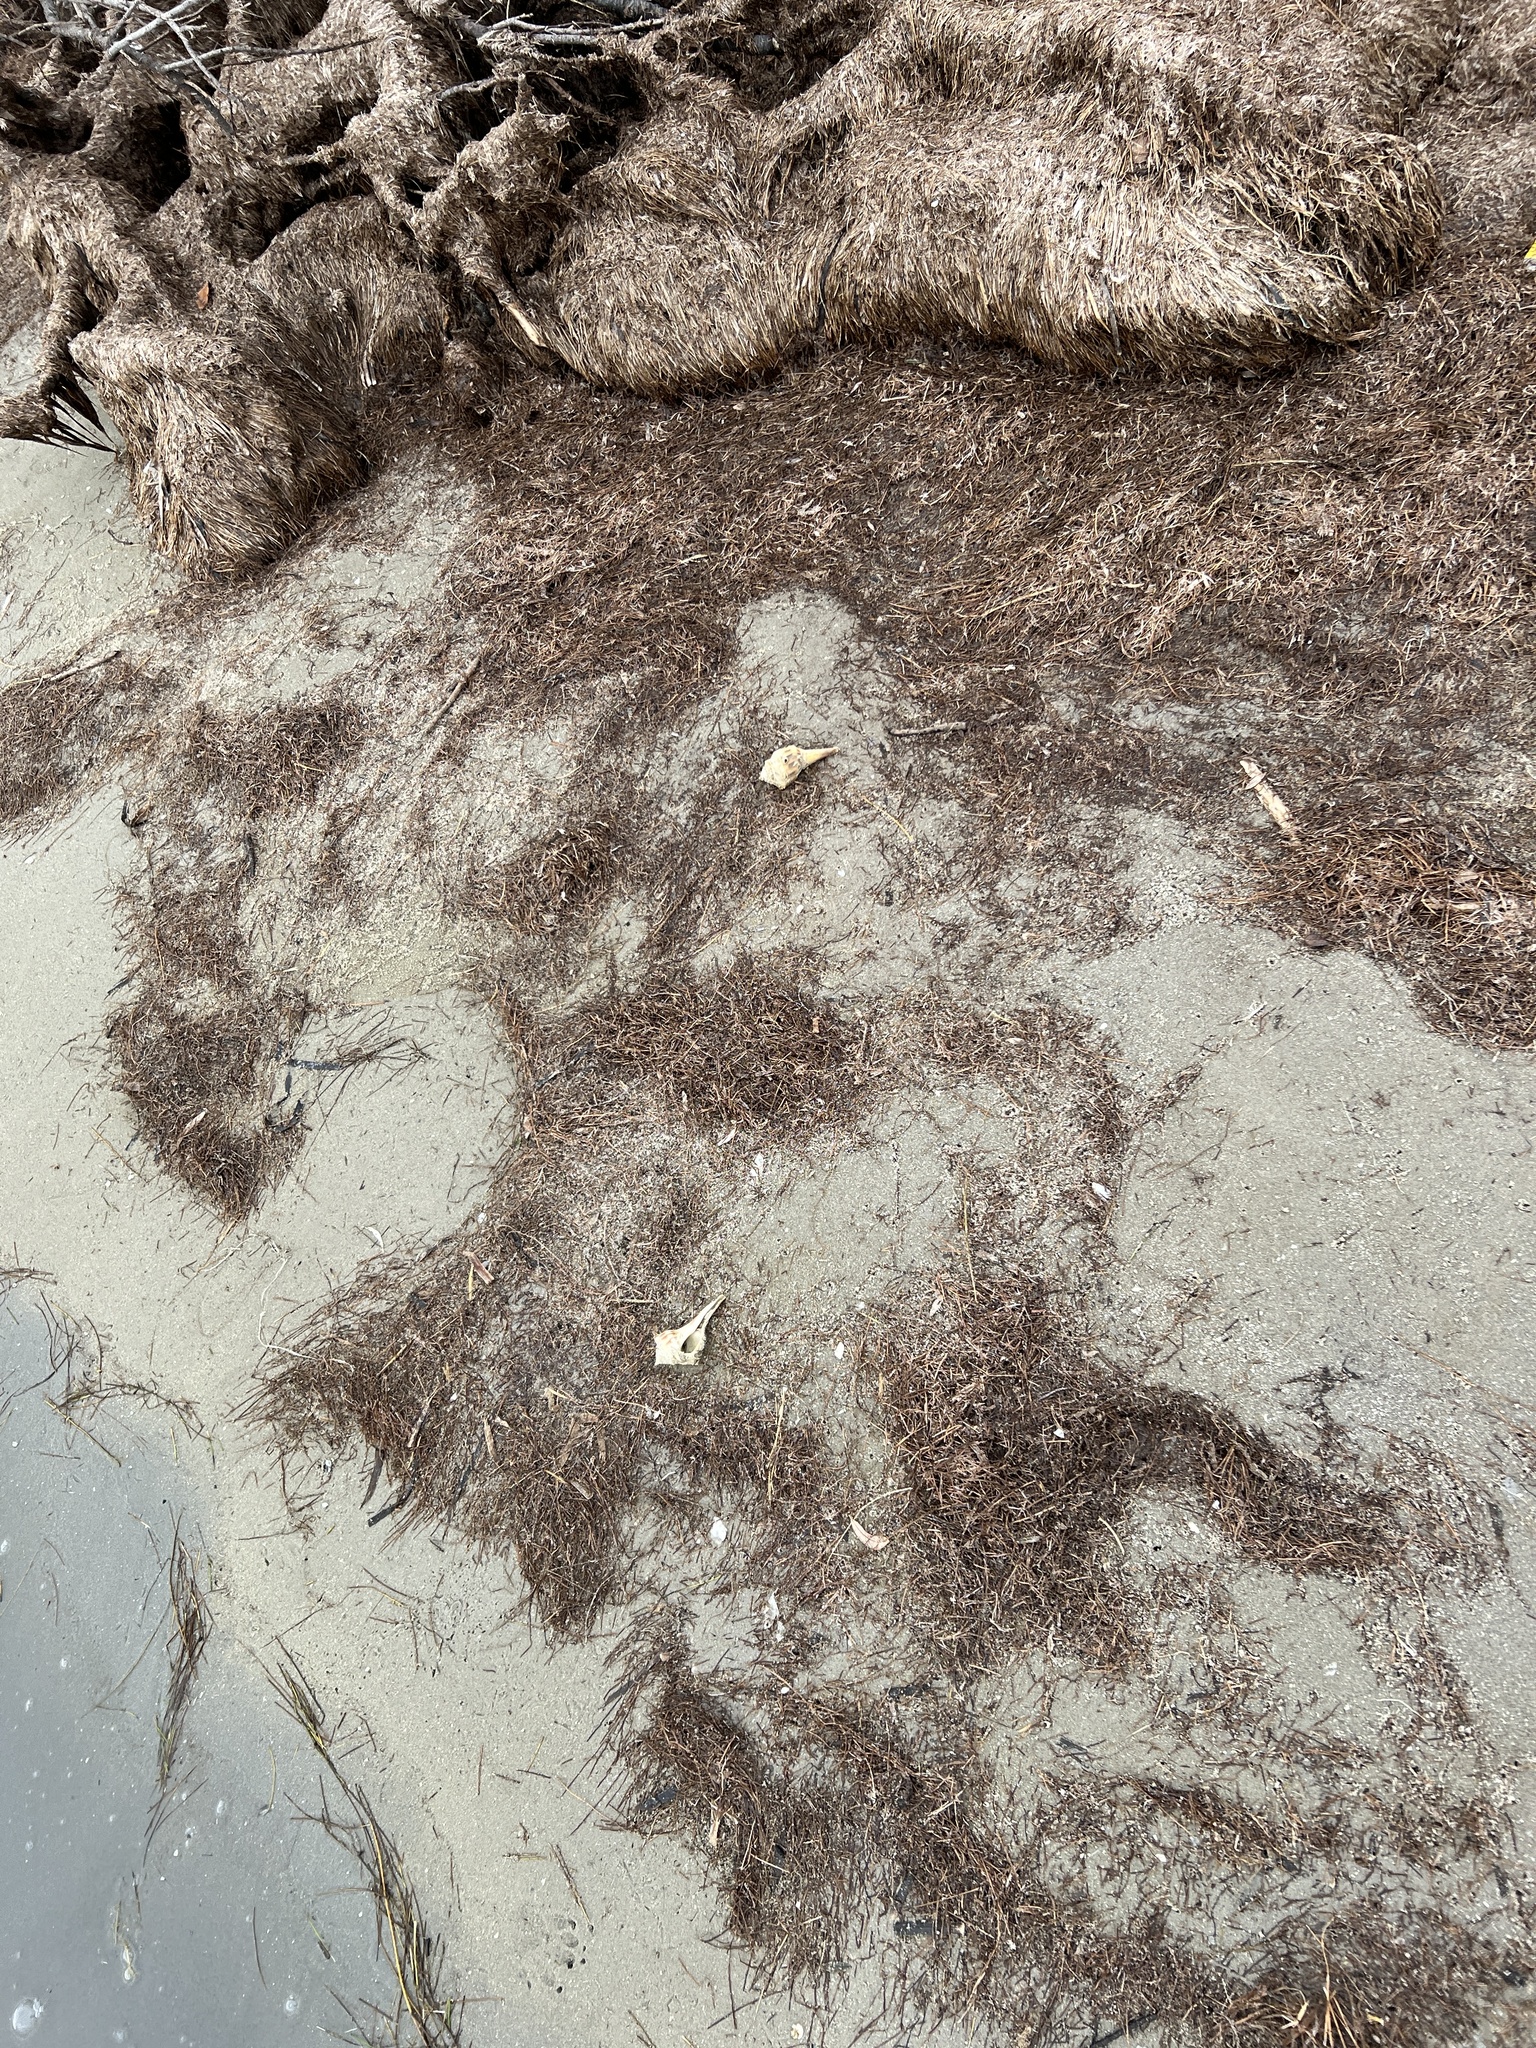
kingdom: Animalia
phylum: Mollusca
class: Gastropoda
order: Neogastropoda
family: Busyconidae
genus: Sinistrofulgur
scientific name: Sinistrofulgur pulleyi
